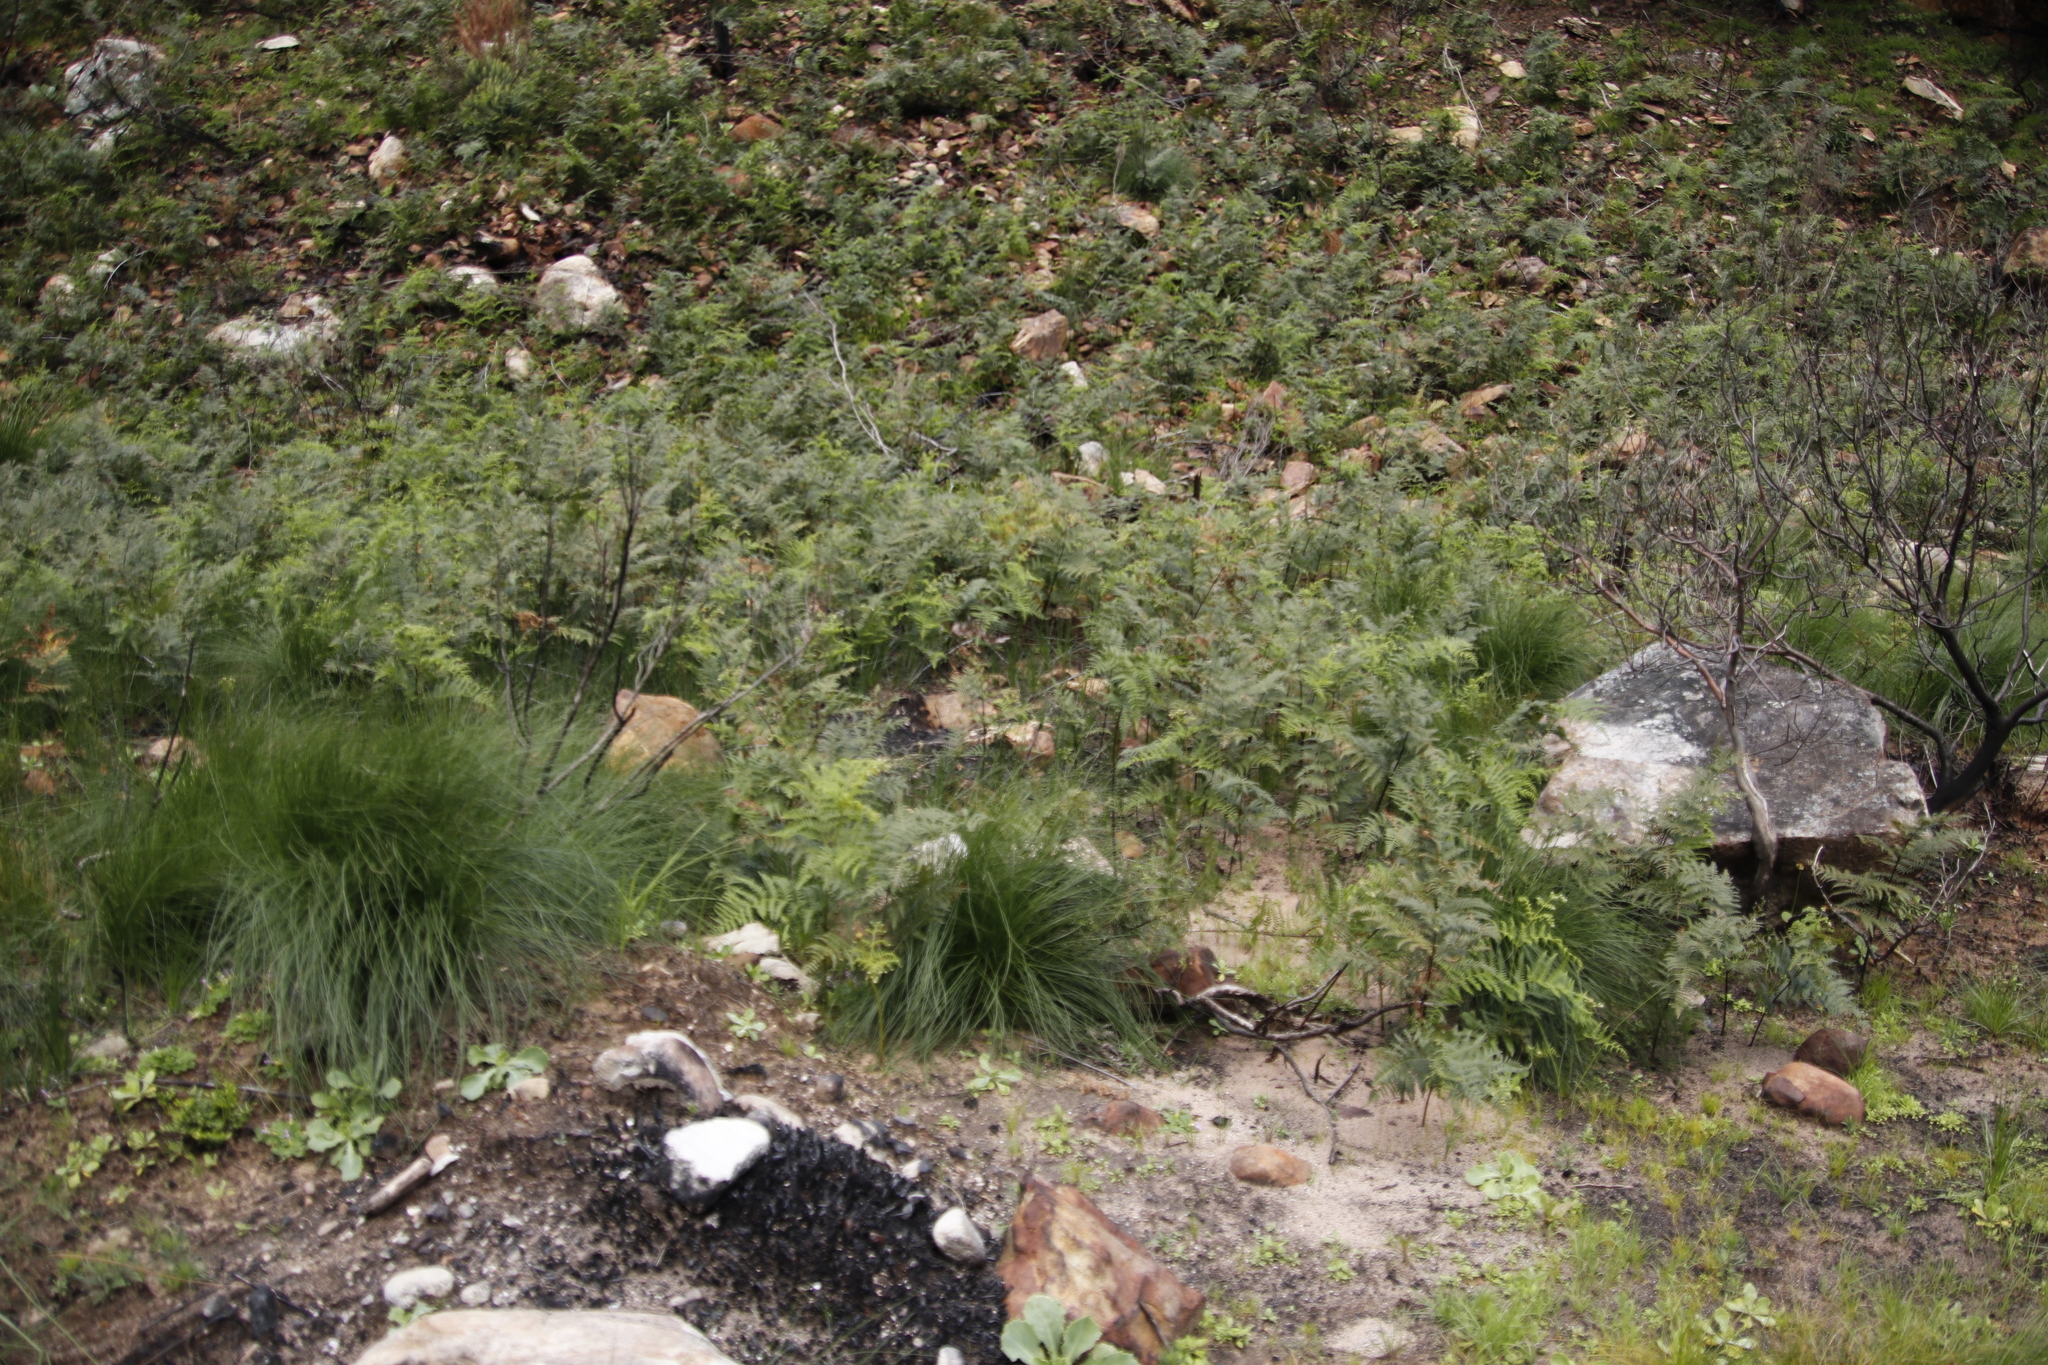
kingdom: Plantae
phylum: Tracheophyta
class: Polypodiopsida
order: Polypodiales
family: Dennstaedtiaceae
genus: Pteridium
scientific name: Pteridium aquilinum
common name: Bracken
